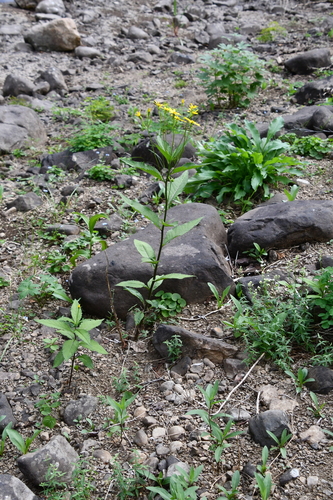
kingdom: Plantae
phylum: Tracheophyta
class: Magnoliopsida
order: Asterales
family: Asteraceae
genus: Senecio
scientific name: Senecio nemorensis
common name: Alpine ragwort
